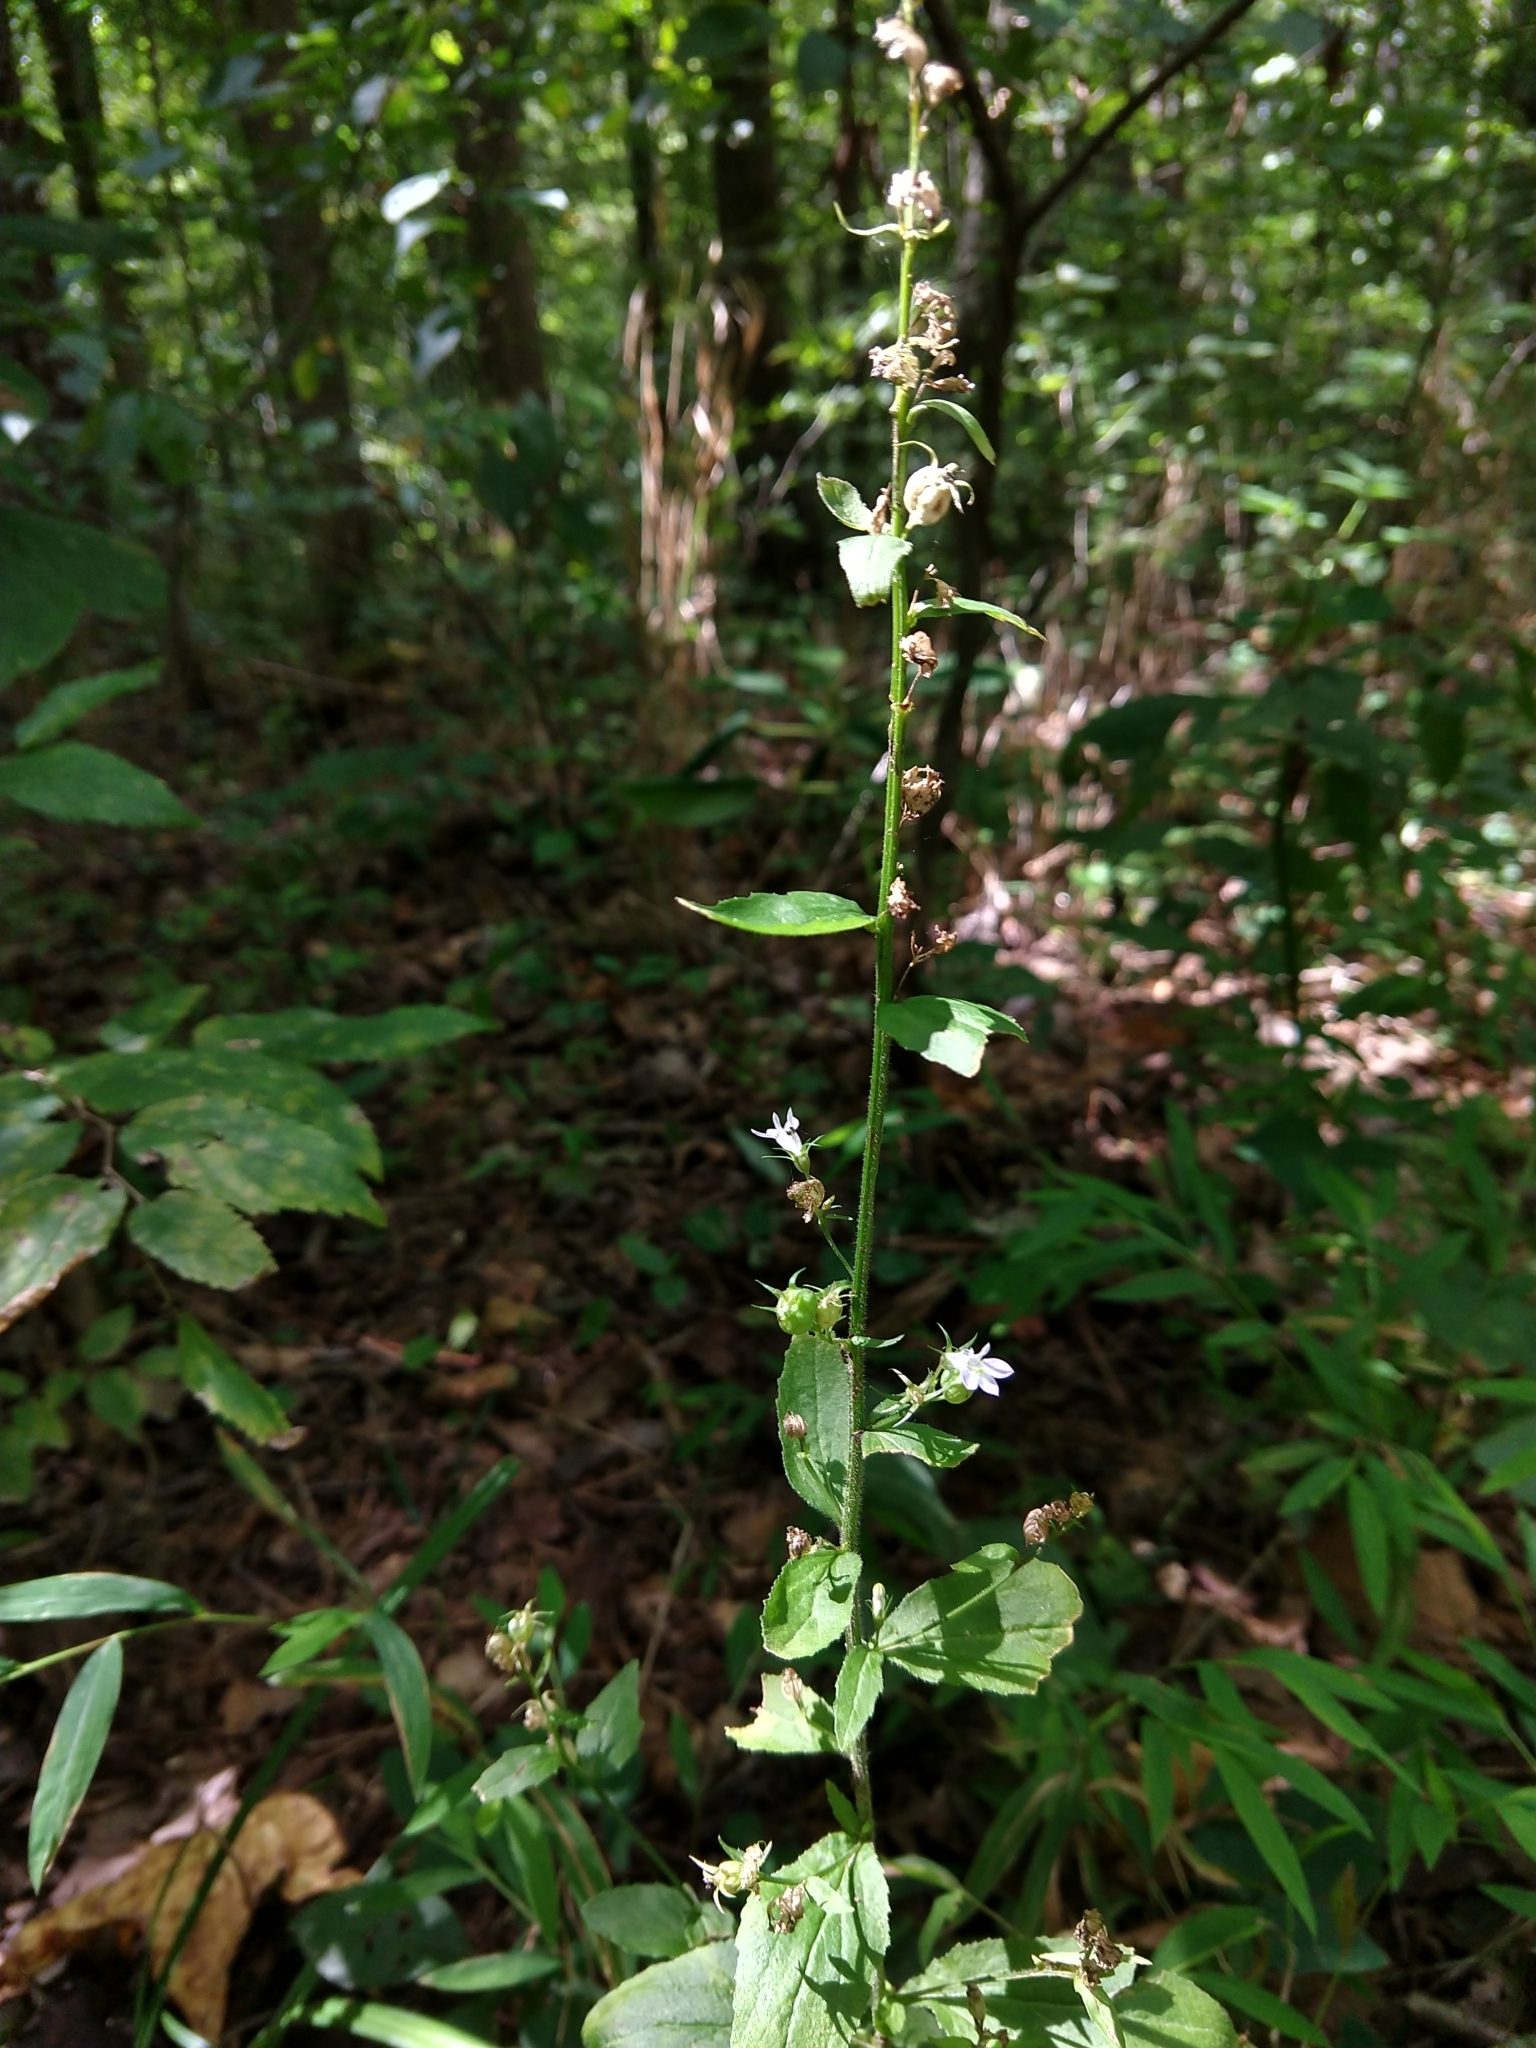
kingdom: Plantae
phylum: Tracheophyta
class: Magnoliopsida
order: Asterales
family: Campanulaceae
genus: Lobelia
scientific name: Lobelia inflata
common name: Indian tobacco
